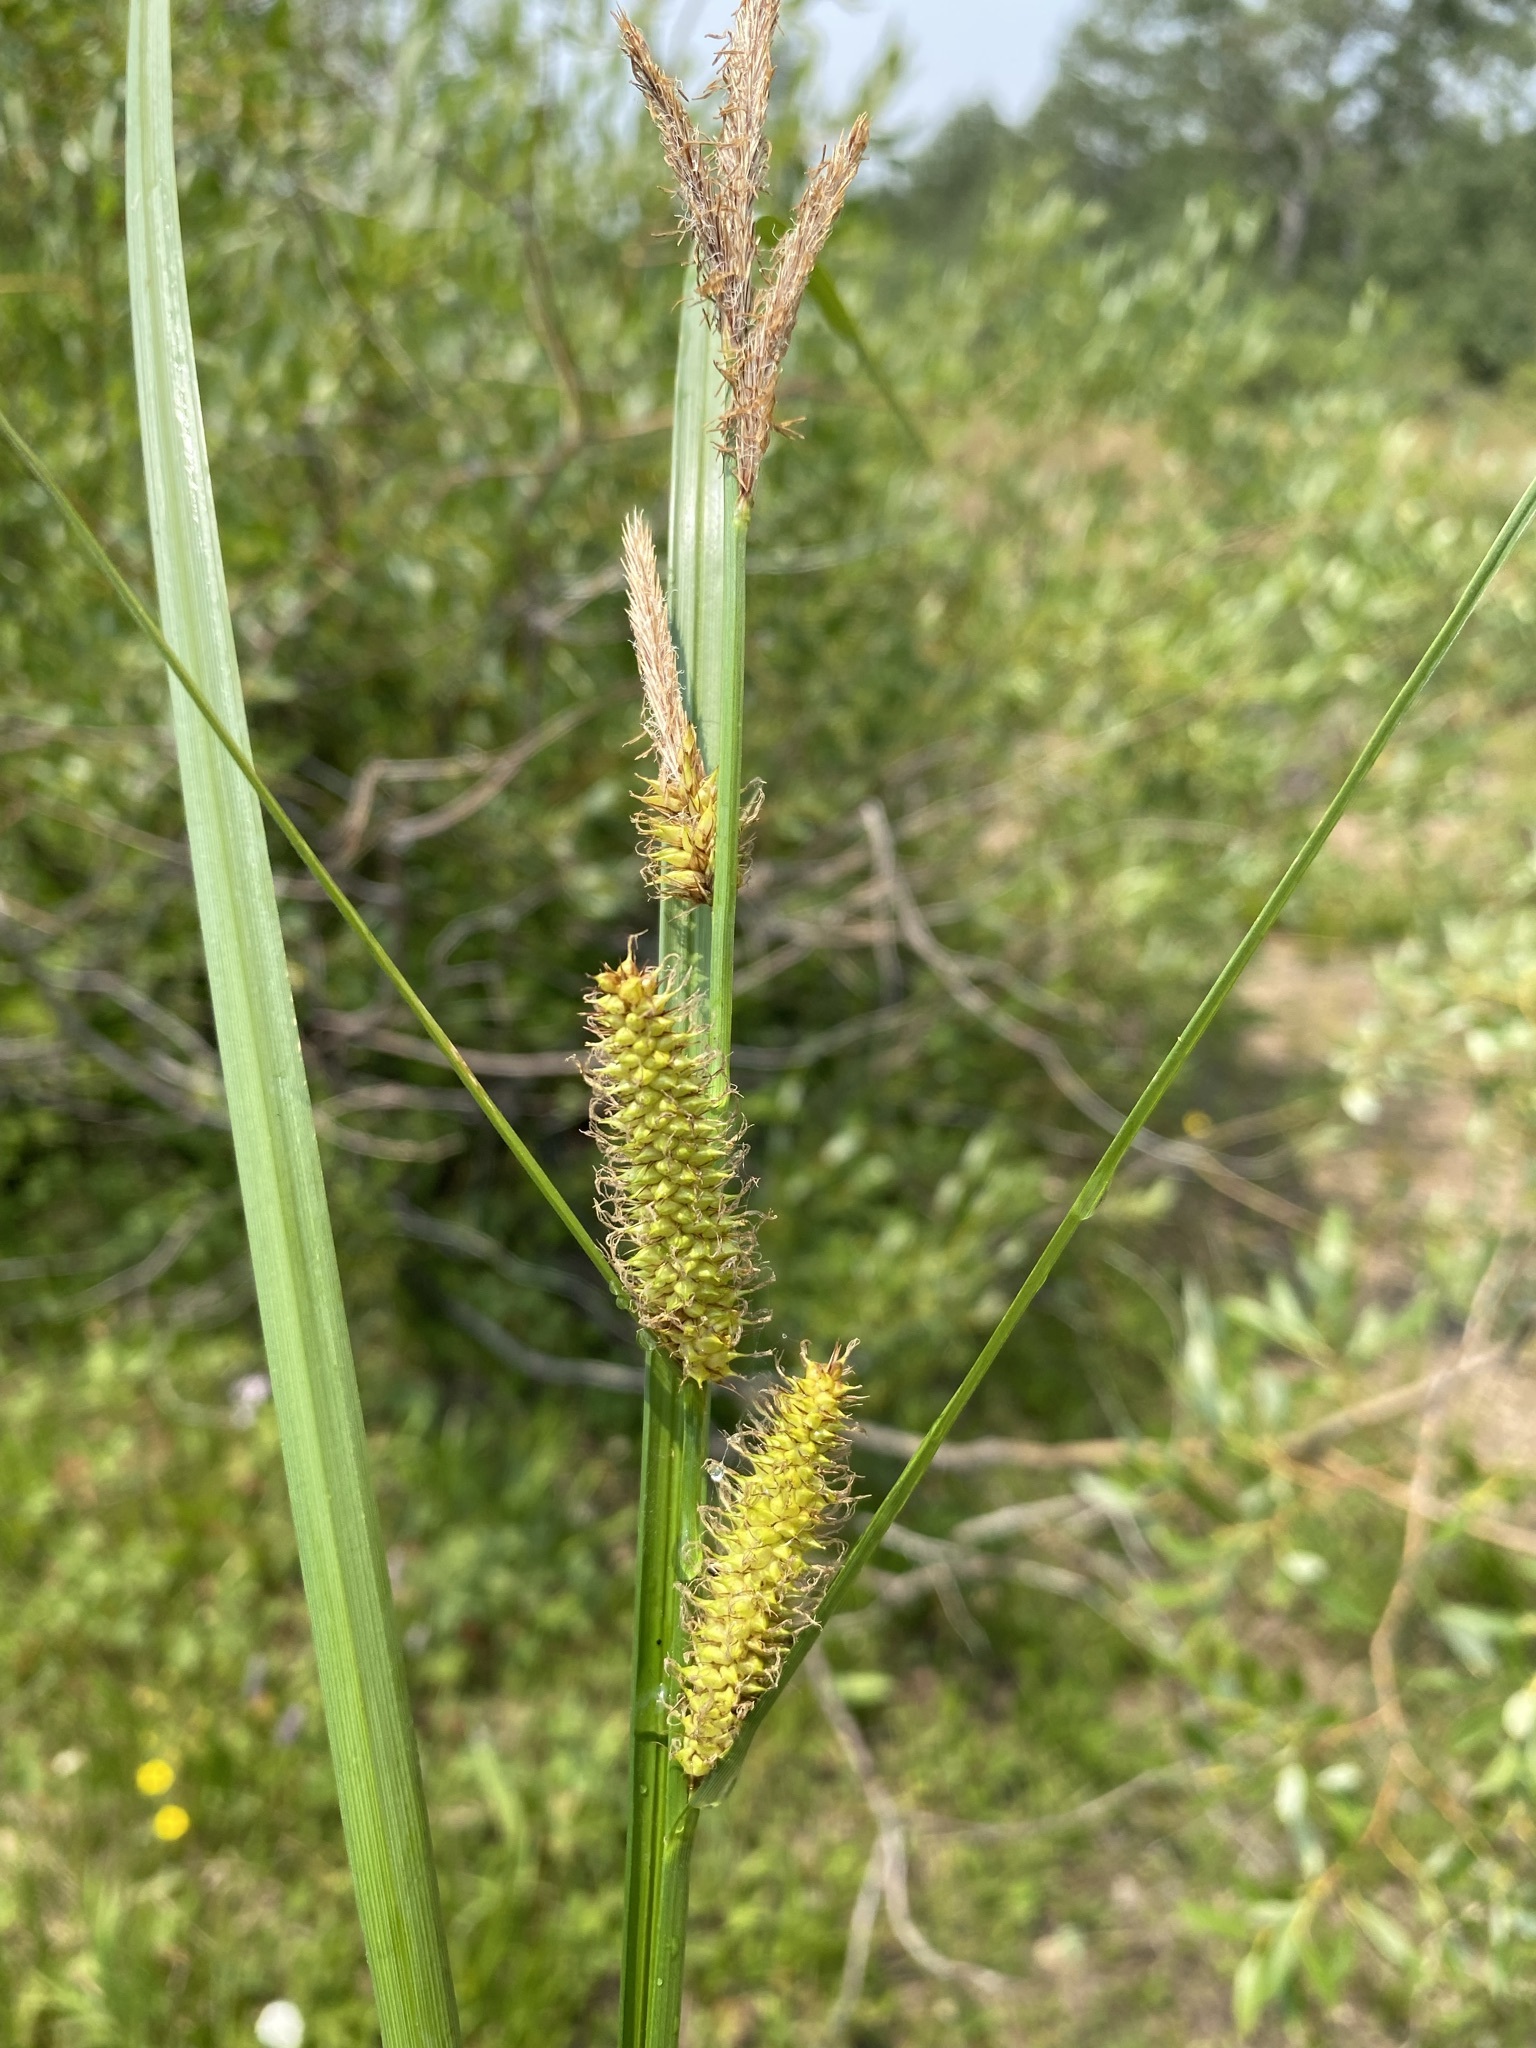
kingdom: Plantae
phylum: Tracheophyta
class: Liliopsida
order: Poales
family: Cyperaceae
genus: Carex
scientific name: Carex utriculata
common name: Beaked sedge
